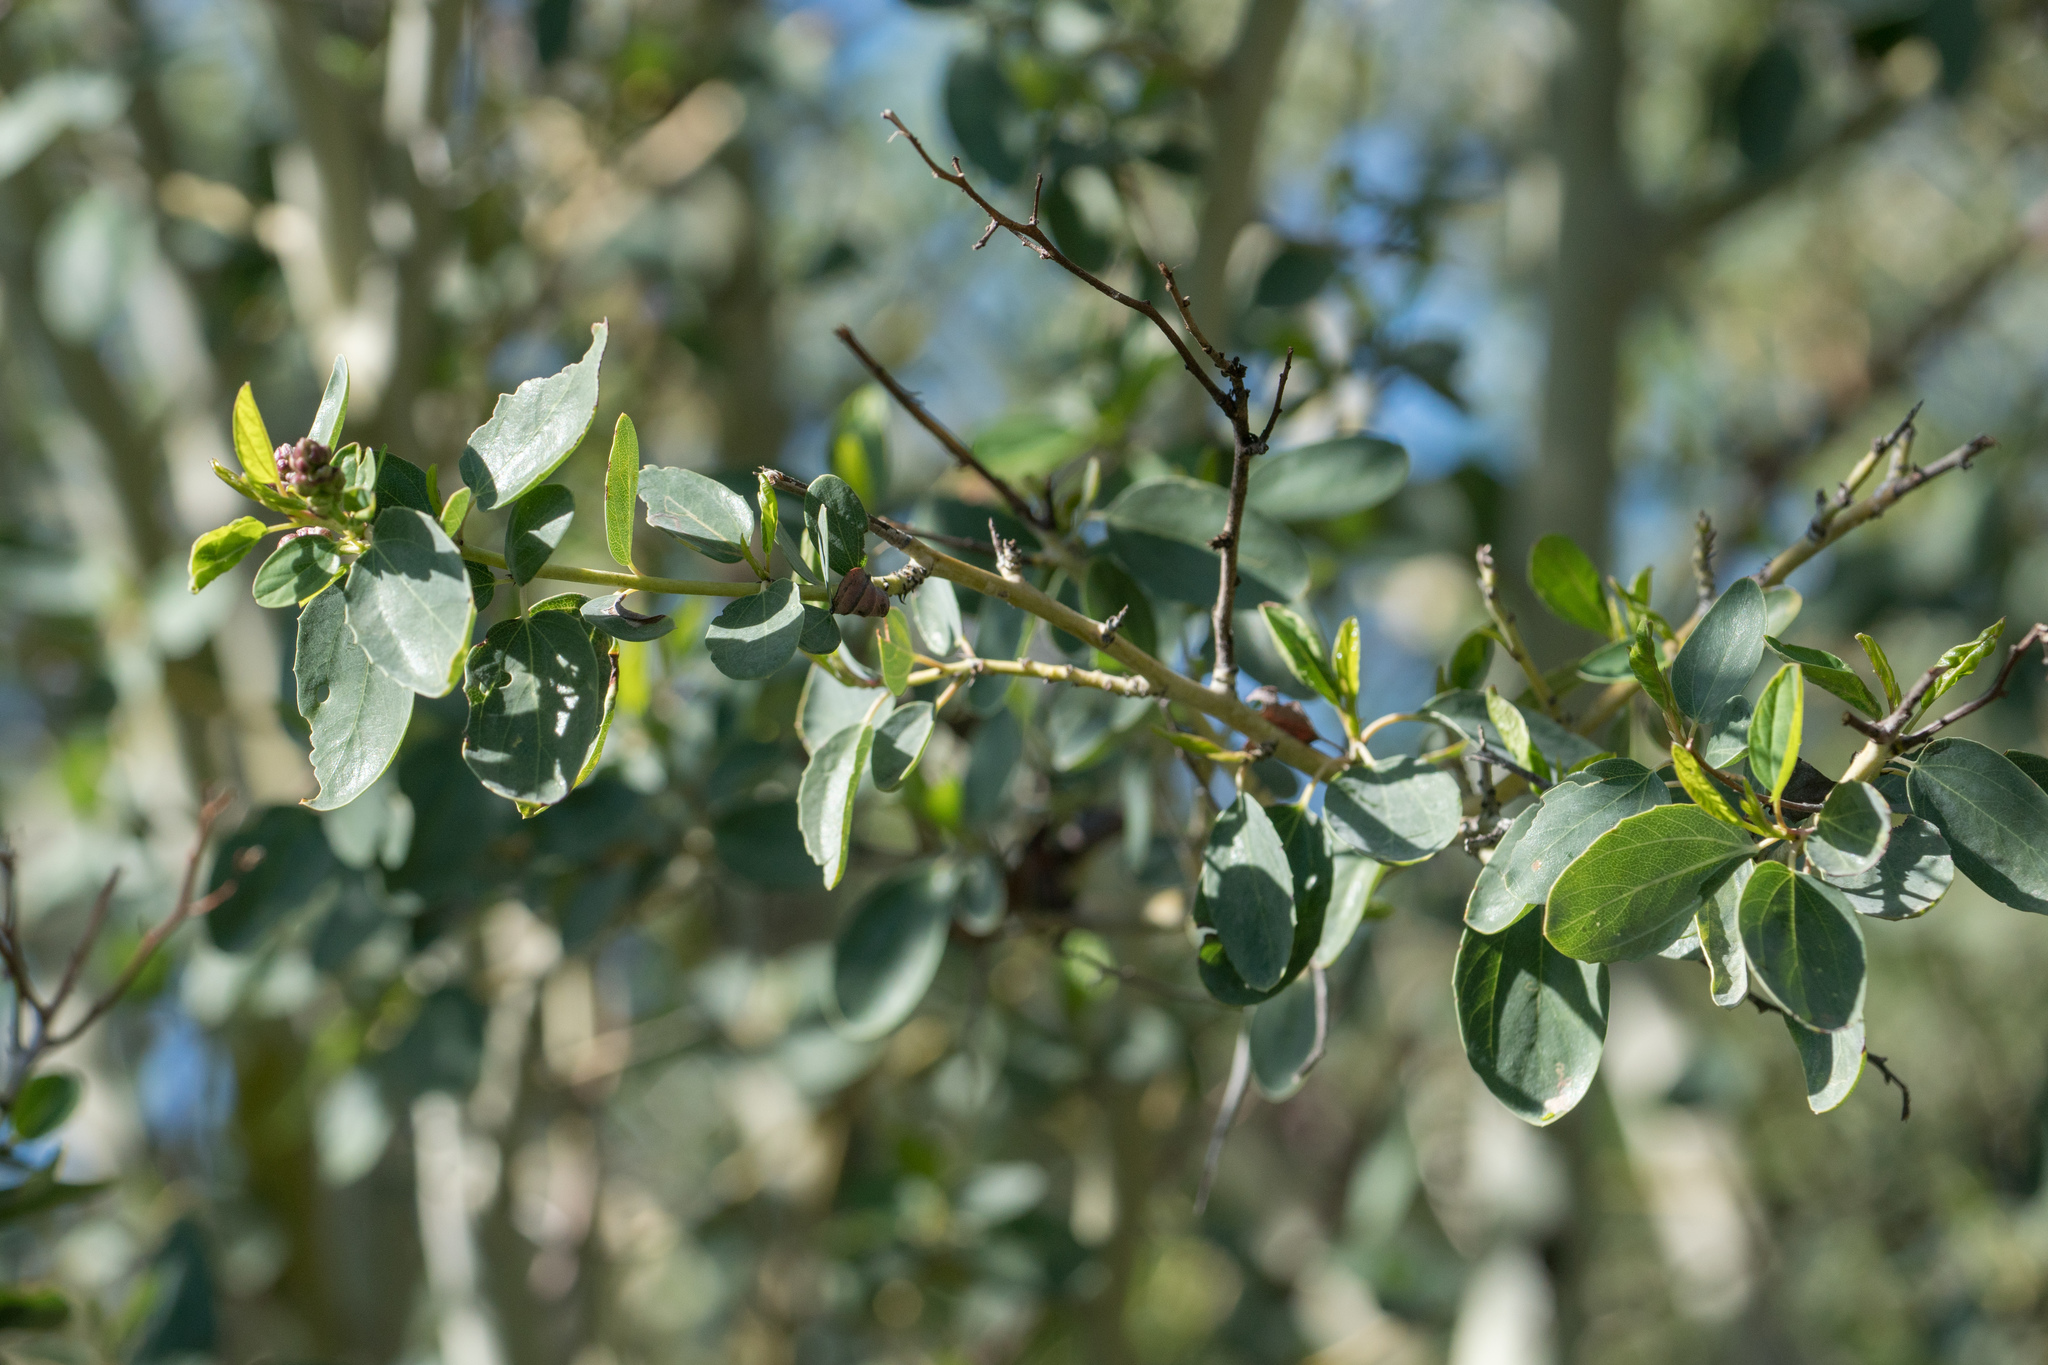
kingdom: Plantae
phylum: Tracheophyta
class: Magnoliopsida
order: Rosales
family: Rhamnaceae
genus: Ceanothus
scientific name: Ceanothus leucodermis
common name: Chaparral whitethorn
